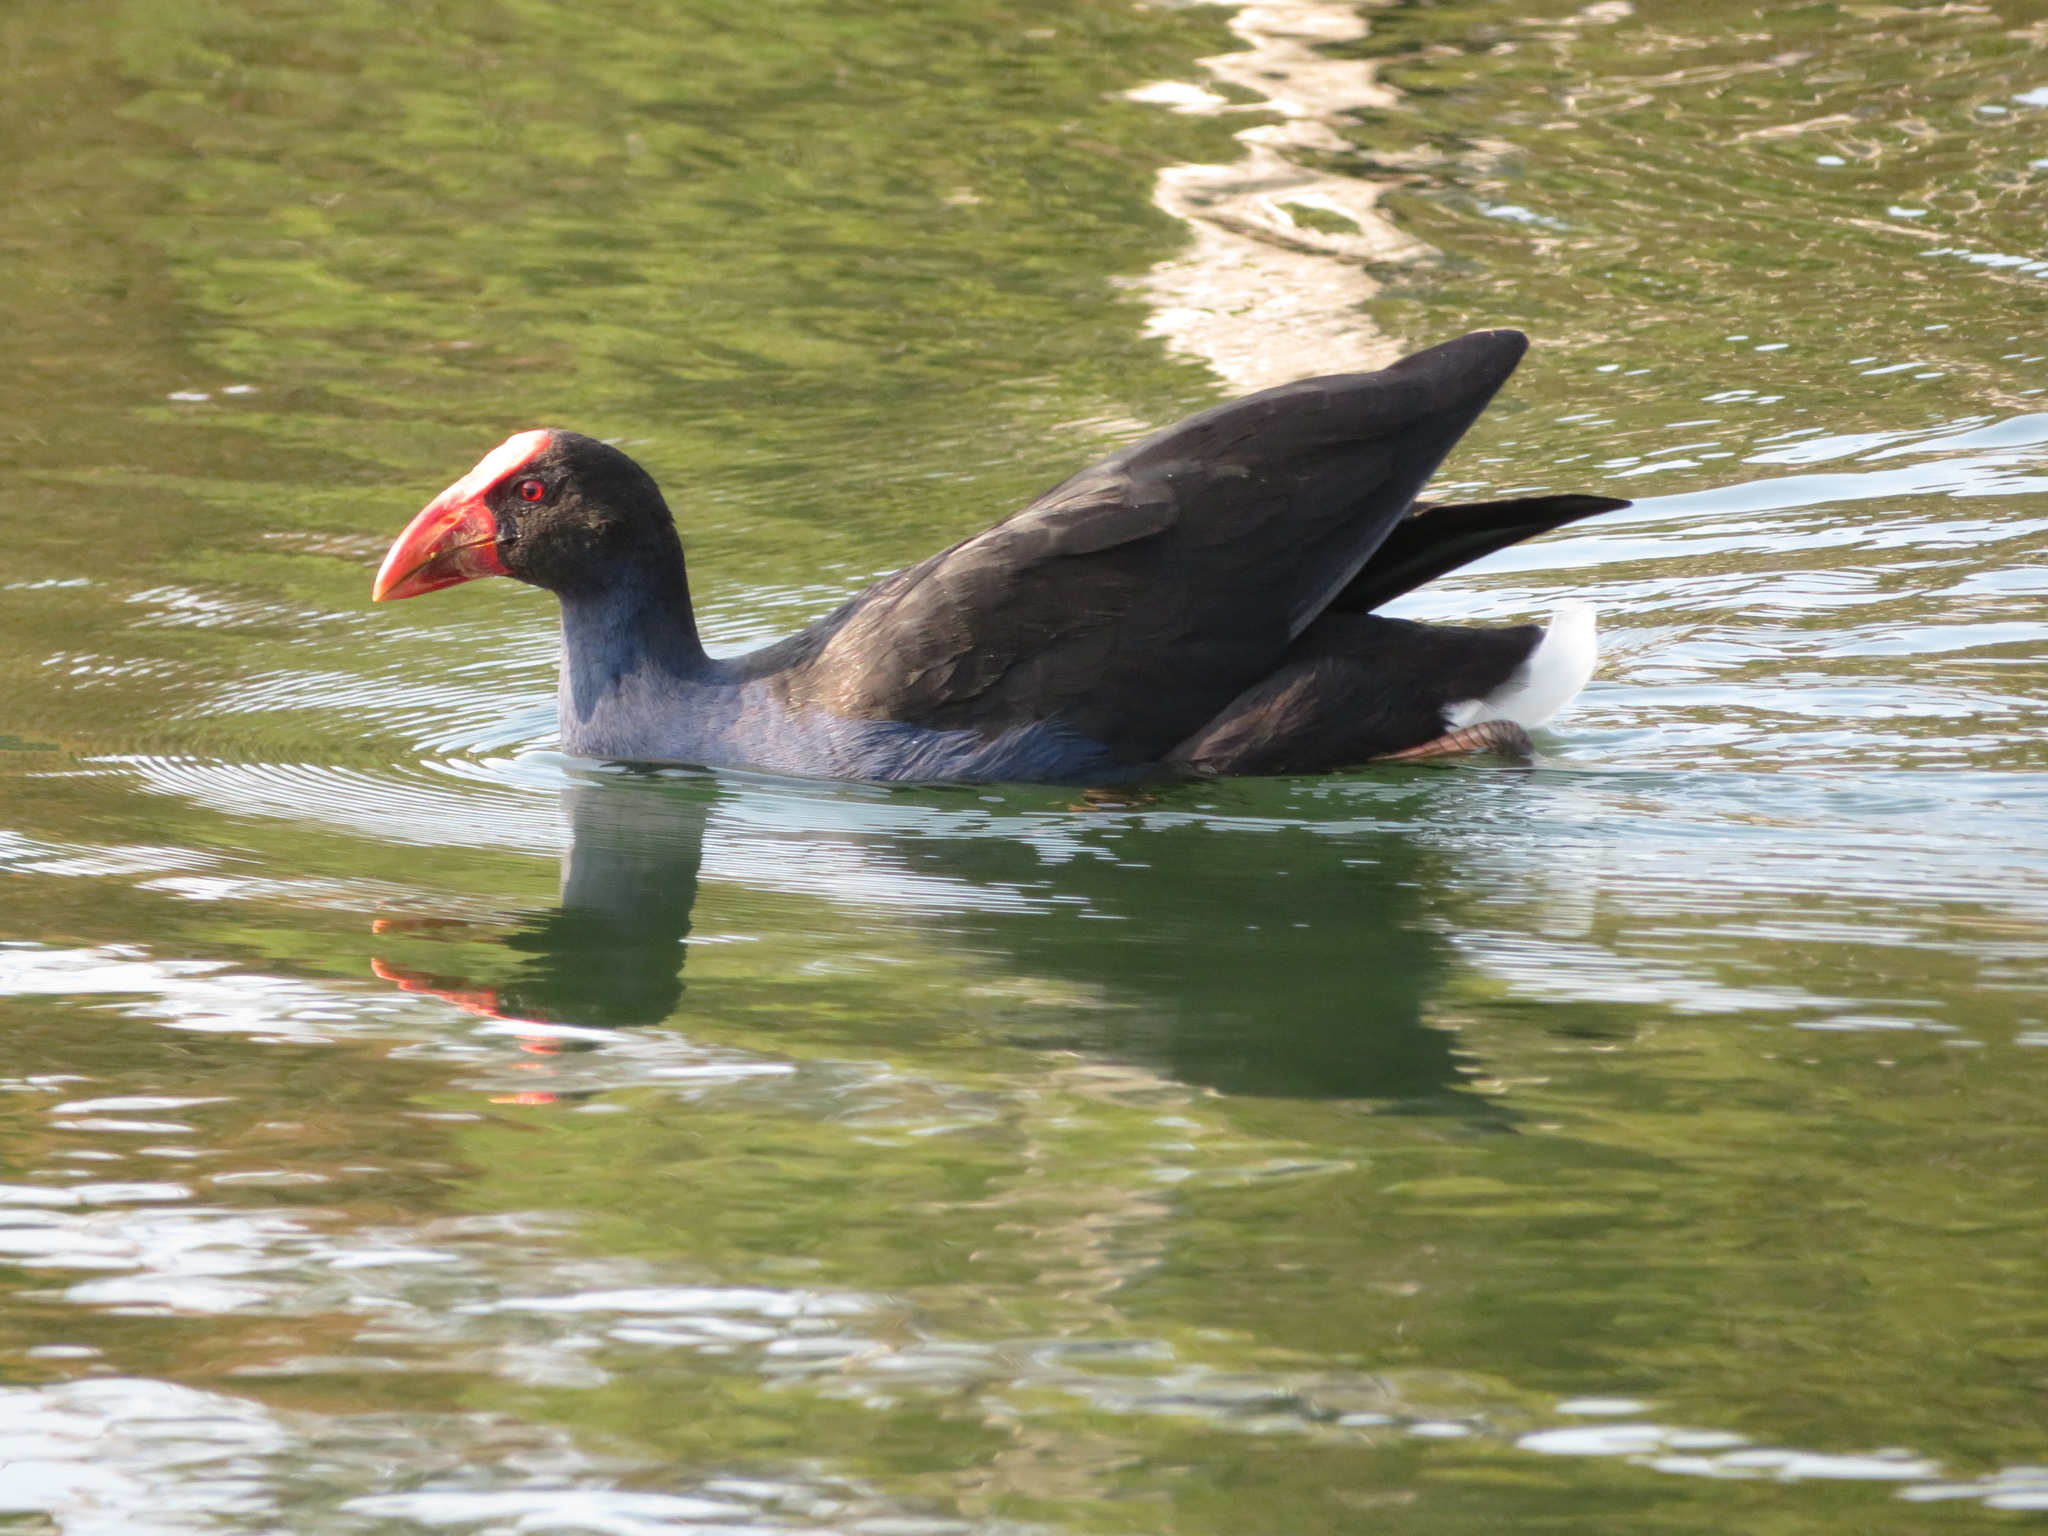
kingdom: Animalia
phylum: Chordata
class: Aves
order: Gruiformes
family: Rallidae
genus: Porphyrio
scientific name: Porphyrio melanotus
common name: Australasian swamphen
